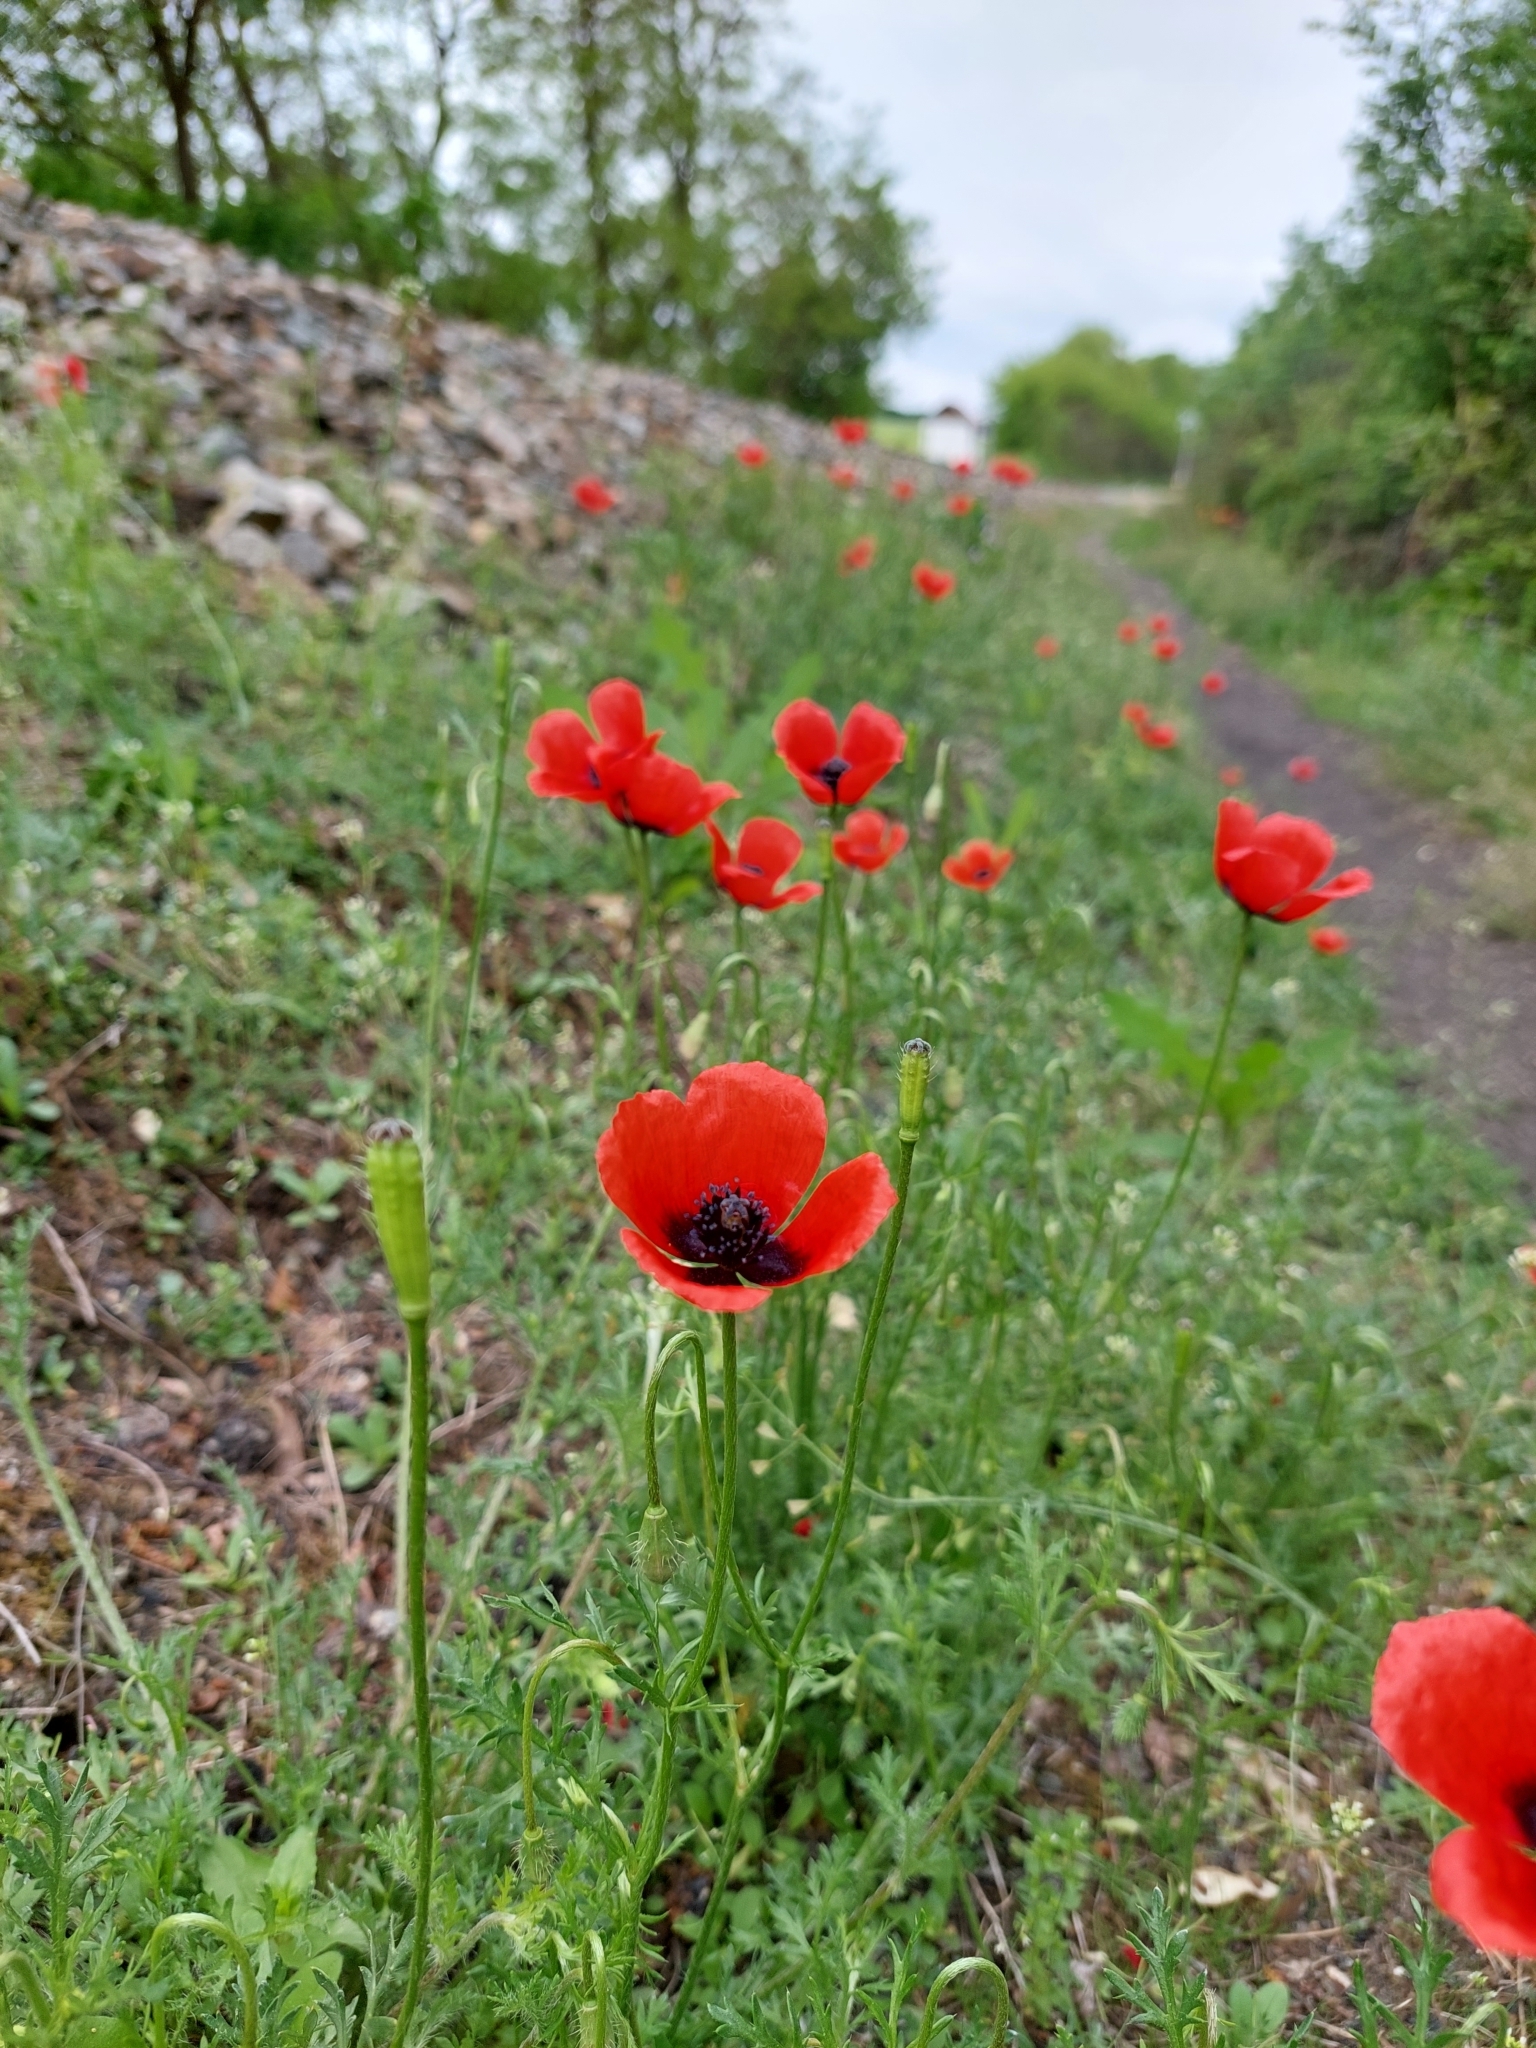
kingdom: Plantae
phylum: Tracheophyta
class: Magnoliopsida
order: Ranunculales
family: Papaveraceae
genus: Roemeria
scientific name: Roemeria argemone
